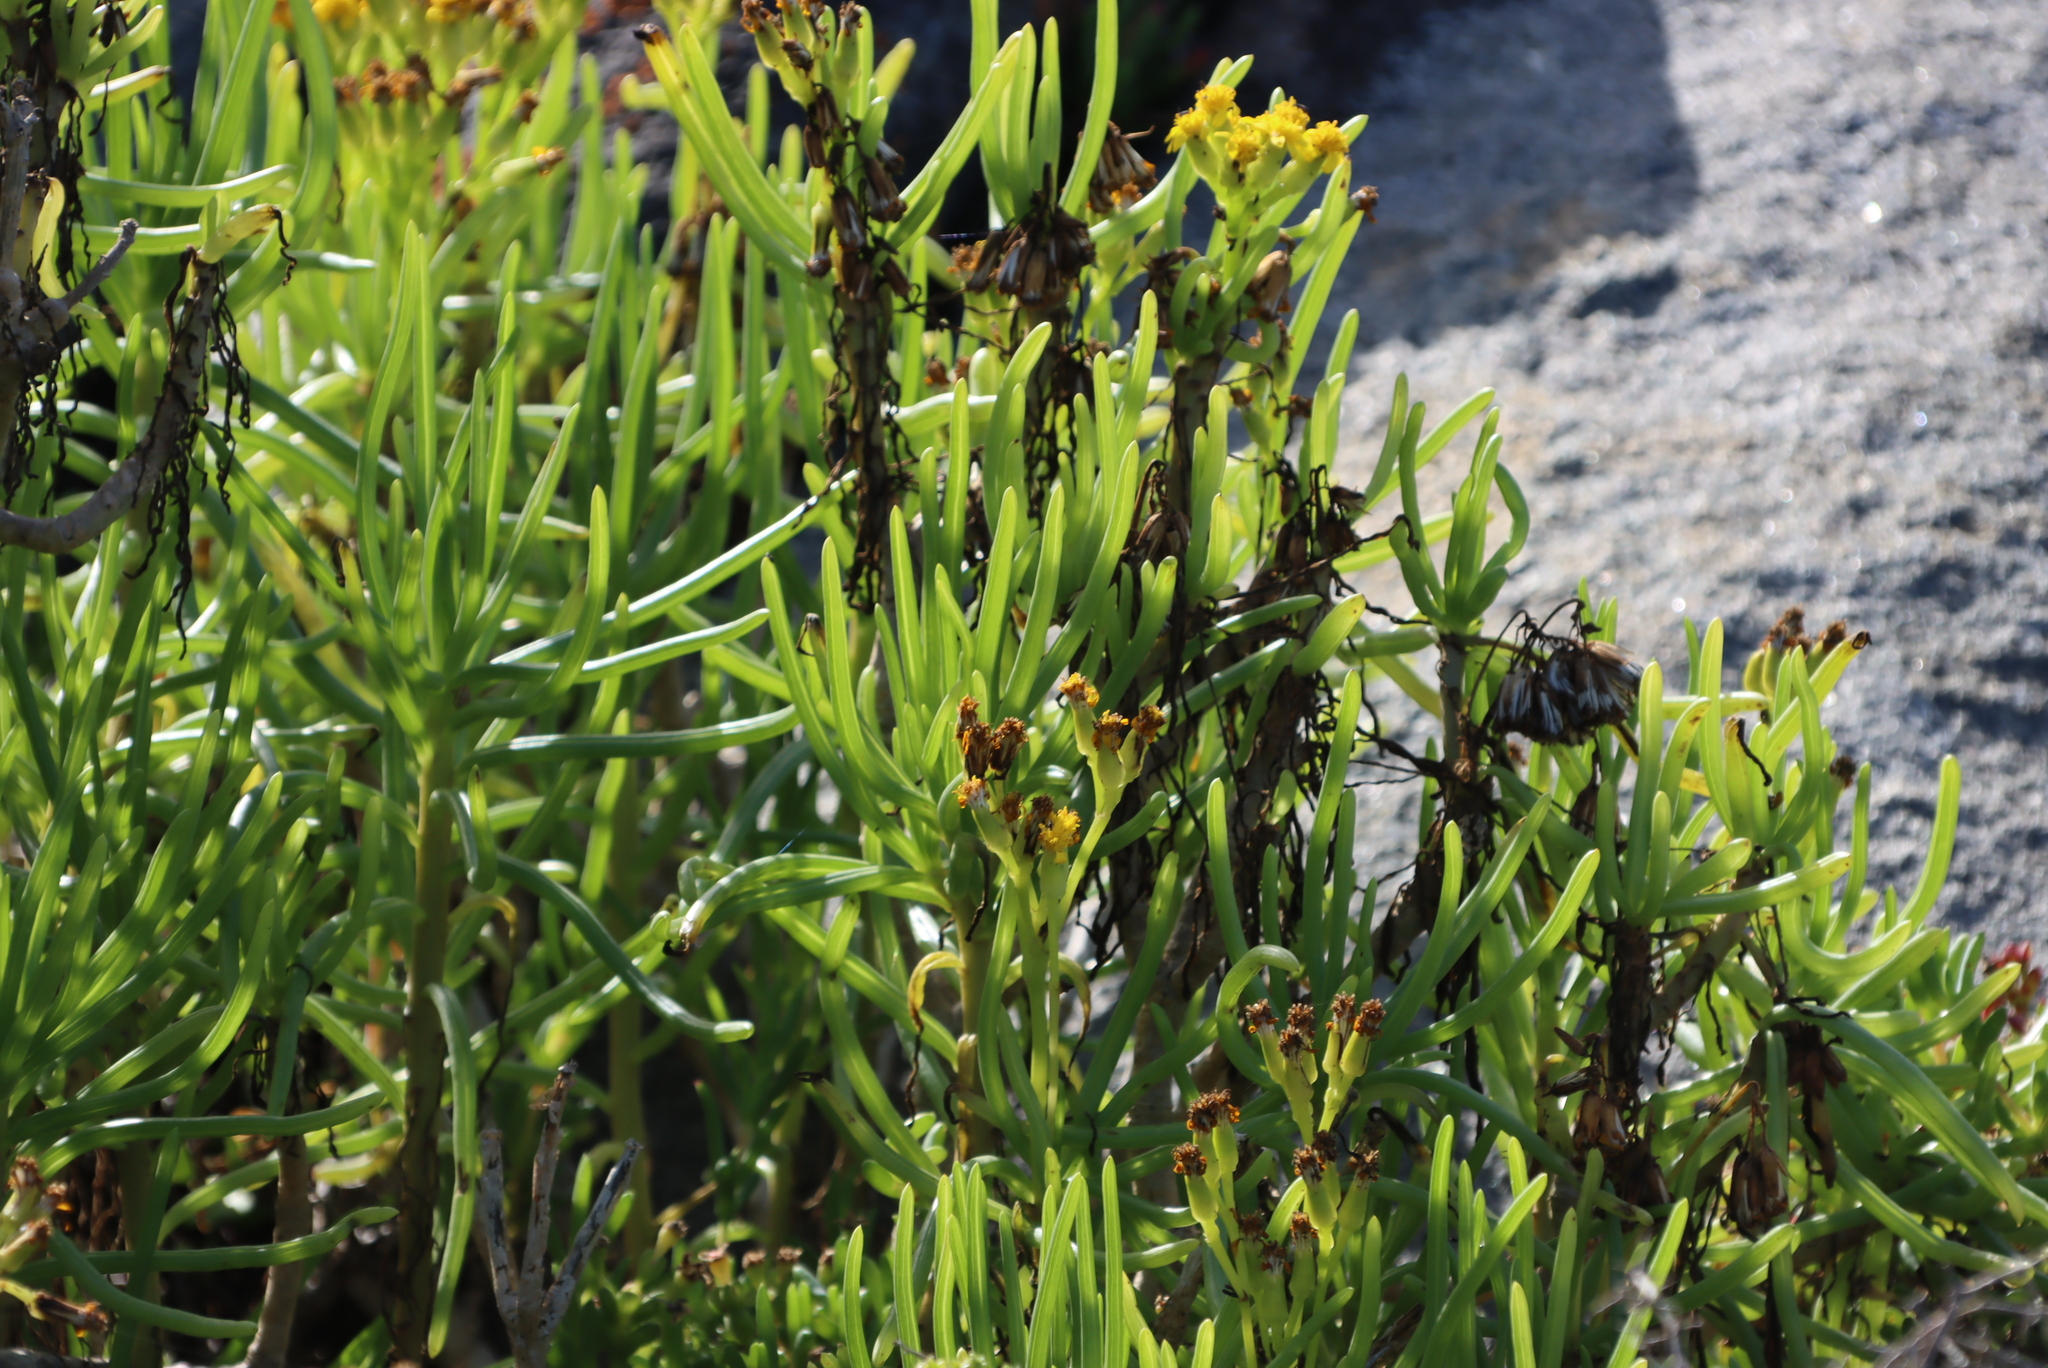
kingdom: Plantae
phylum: Tracheophyta
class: Magnoliopsida
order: Asterales
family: Asteraceae
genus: Curio
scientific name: Curio corymbifer
